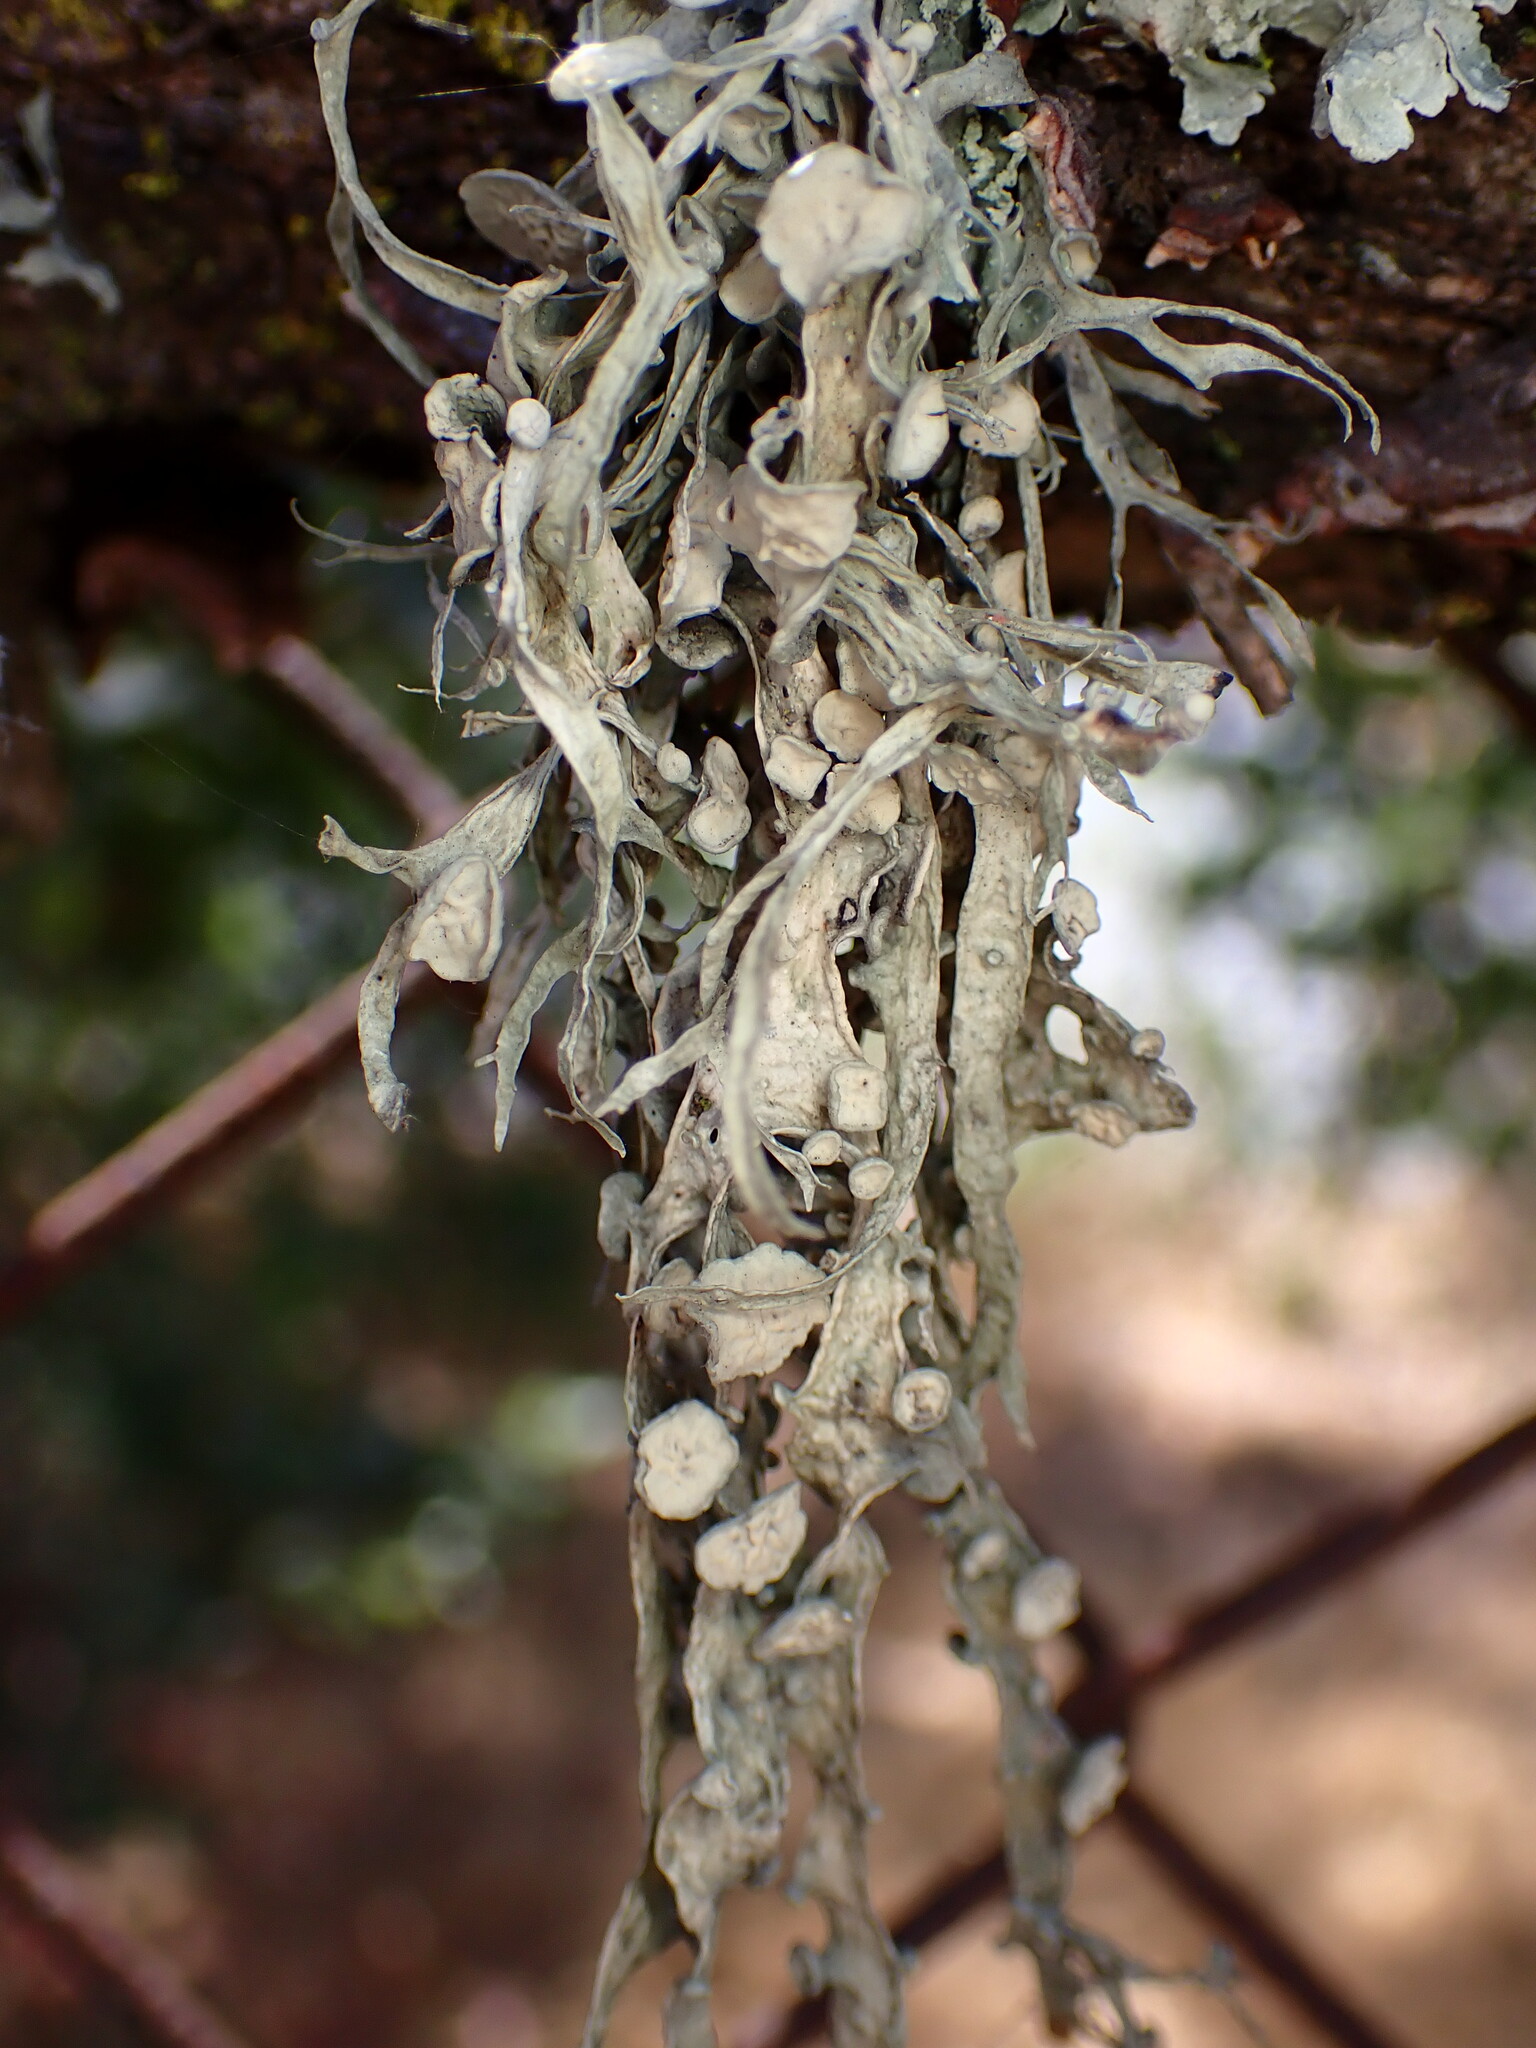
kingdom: Fungi
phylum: Ascomycota
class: Lecanoromycetes
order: Lecanorales
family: Ramalinaceae
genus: Ramalina
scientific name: Ramalina leptocarpha
